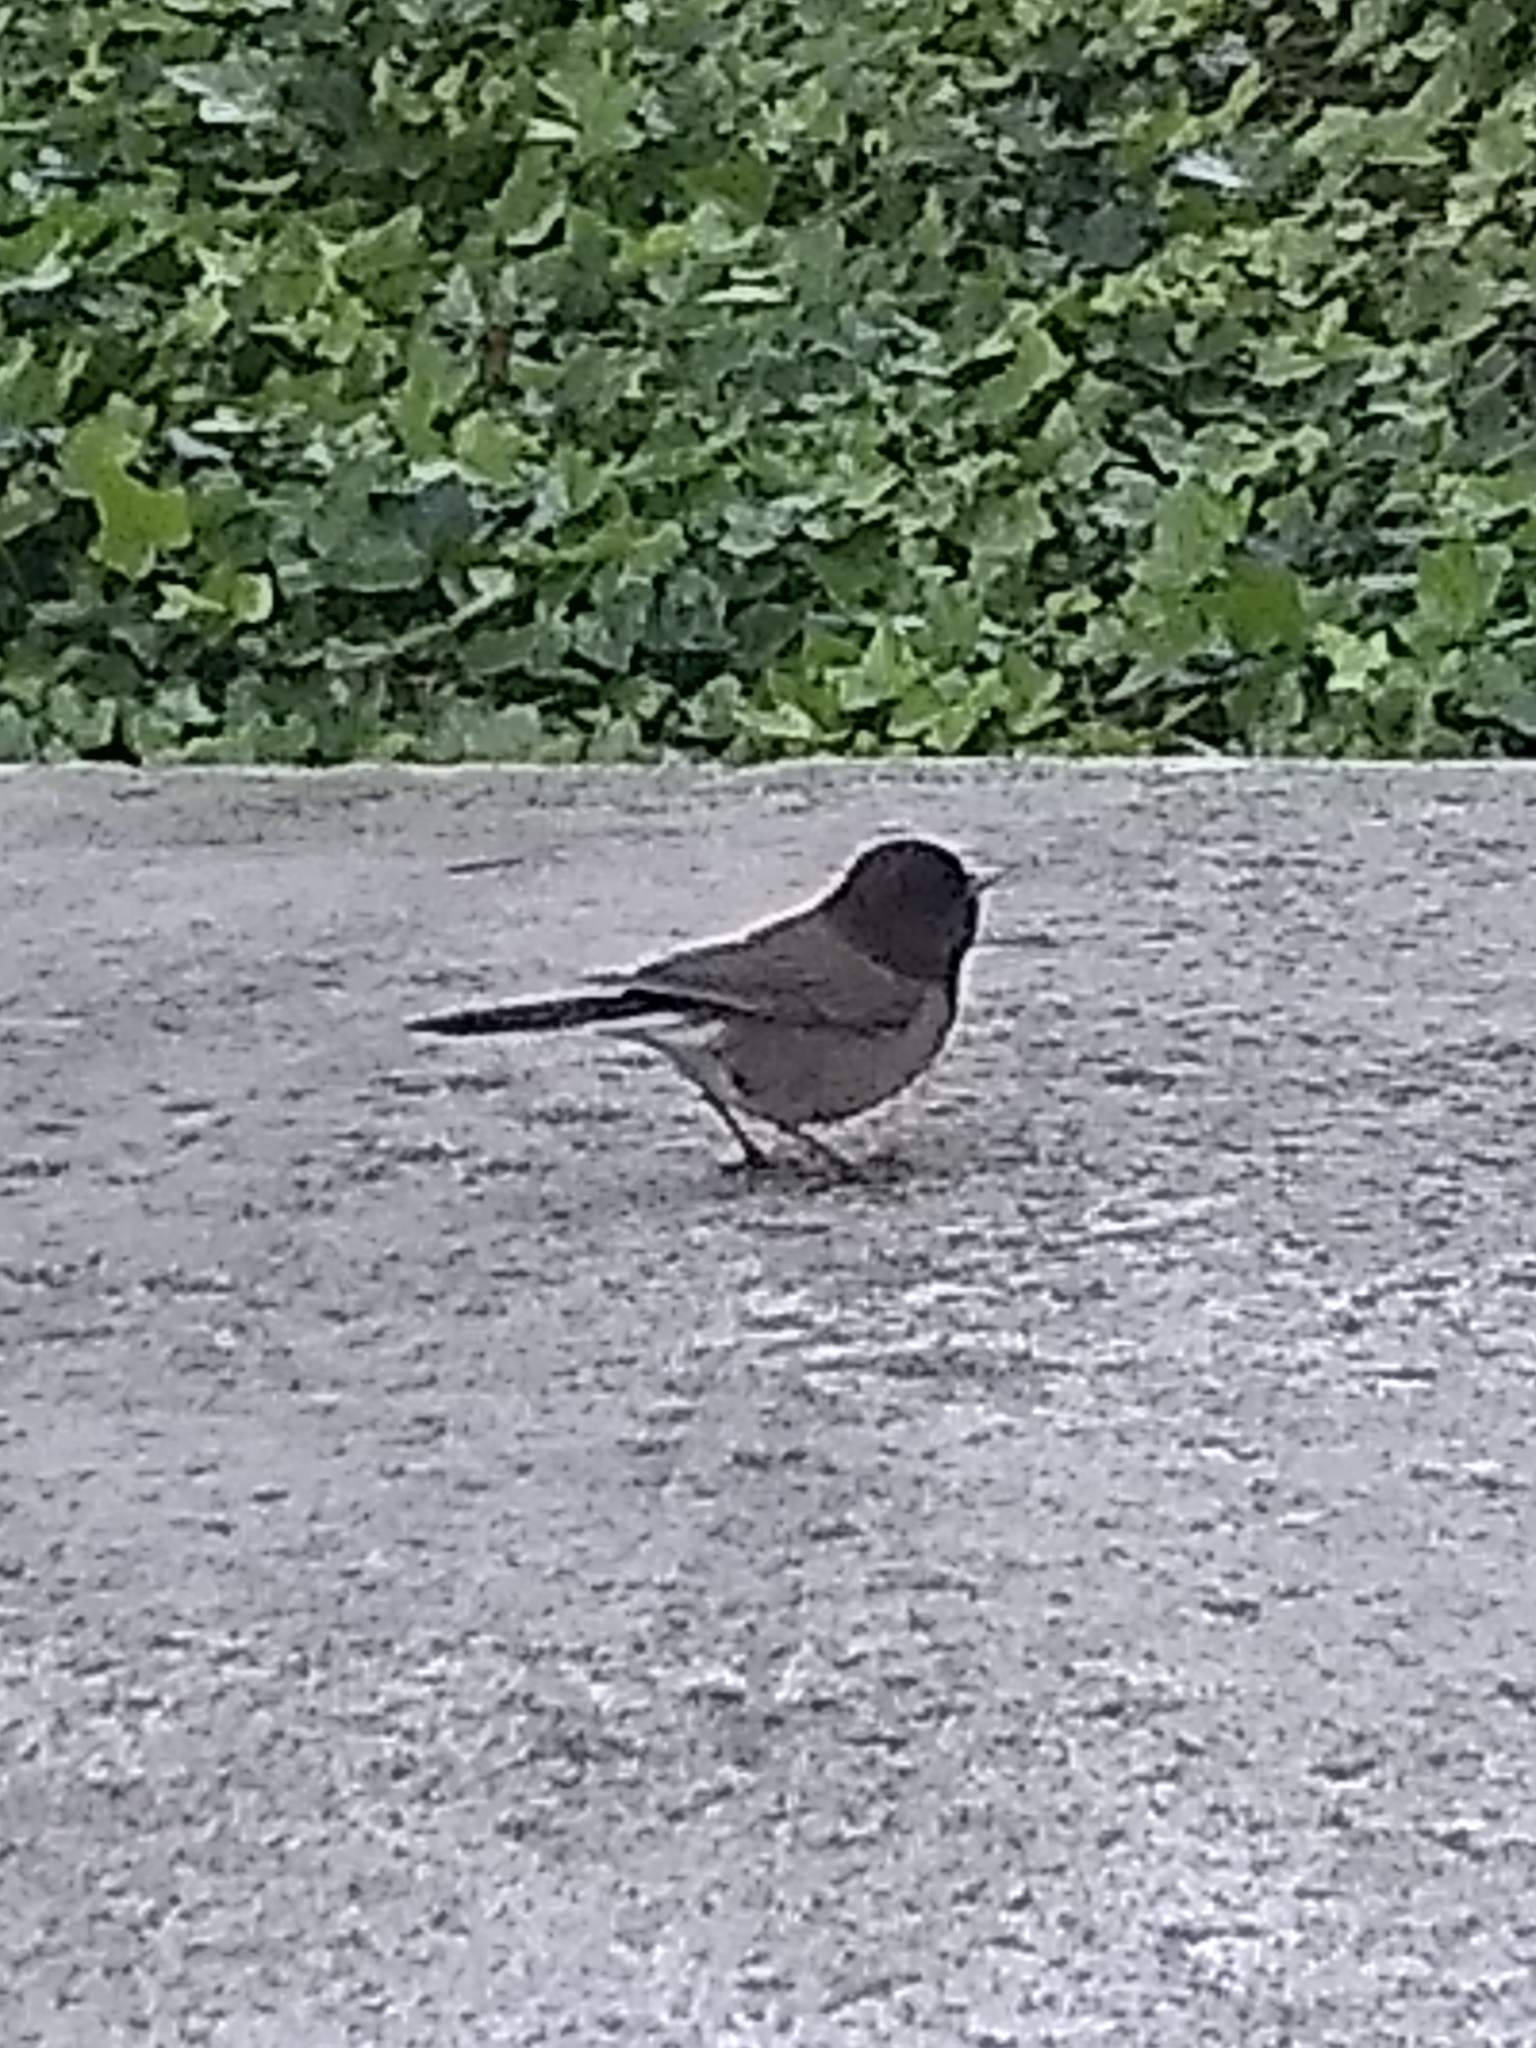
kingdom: Animalia
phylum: Chordata
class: Aves
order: Passeriformes
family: Passerellidae
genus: Junco
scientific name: Junco hyemalis
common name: Dark-eyed junco
